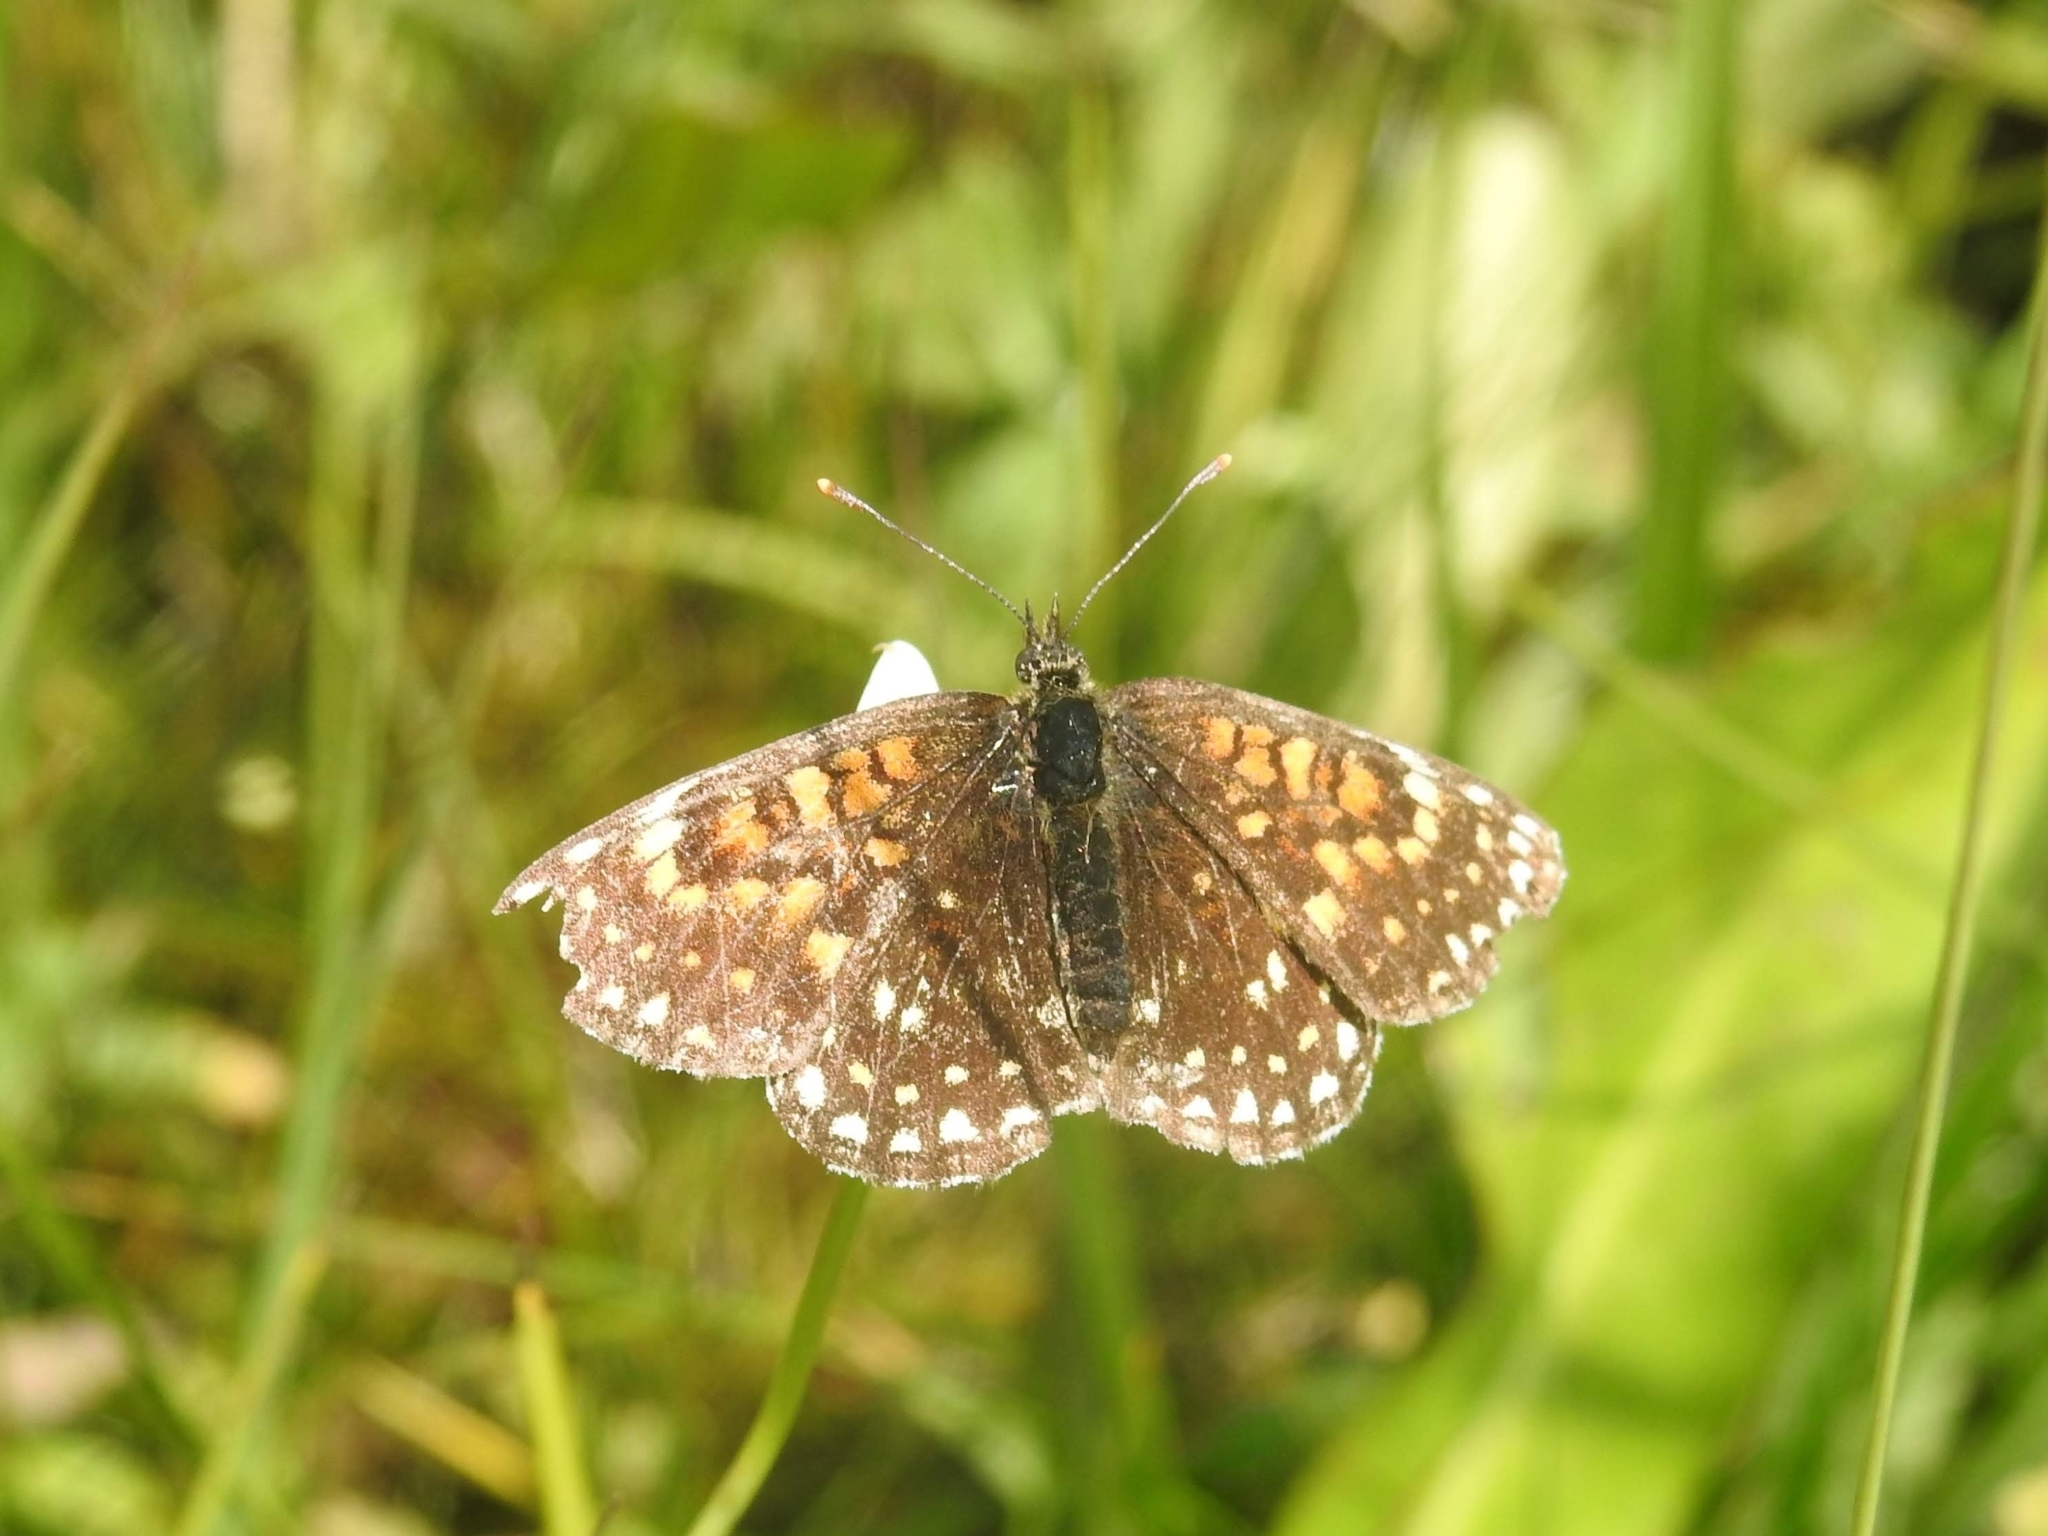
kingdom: Animalia
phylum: Arthropoda
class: Insecta
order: Lepidoptera
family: Nymphalidae
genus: Melitaea
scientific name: Melitaea diamina
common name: False heath fritillary
